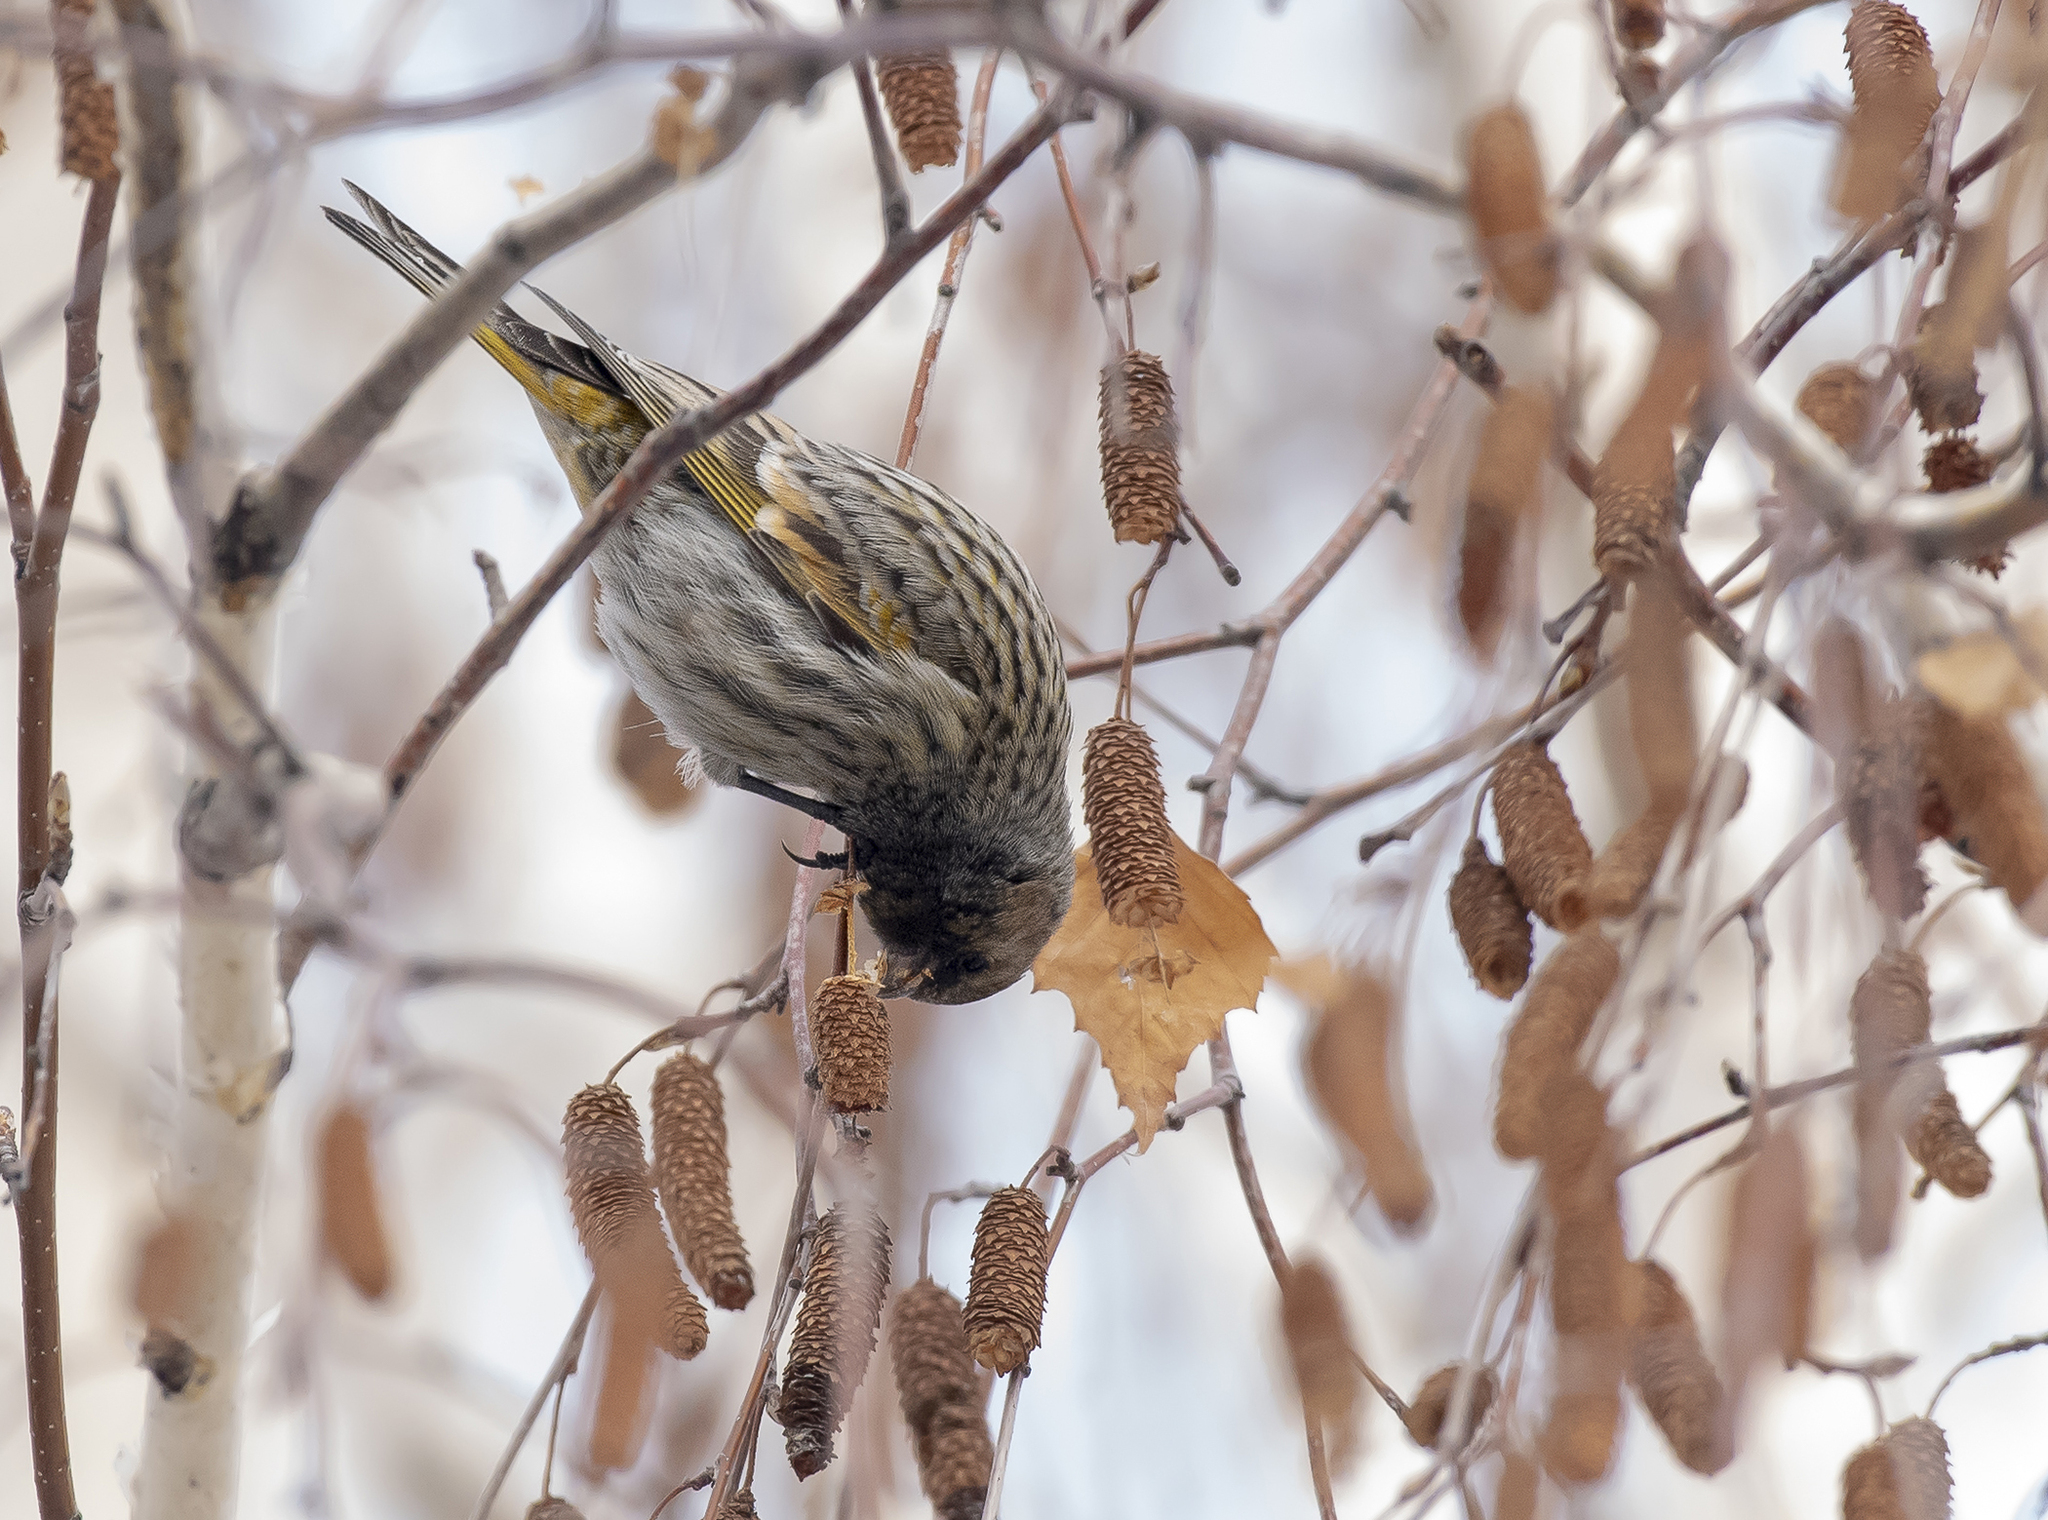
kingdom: Animalia
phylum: Chordata
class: Aves
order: Passeriformes
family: Fringillidae
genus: Serinus
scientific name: Serinus pusillus
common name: Red-fronted serin
